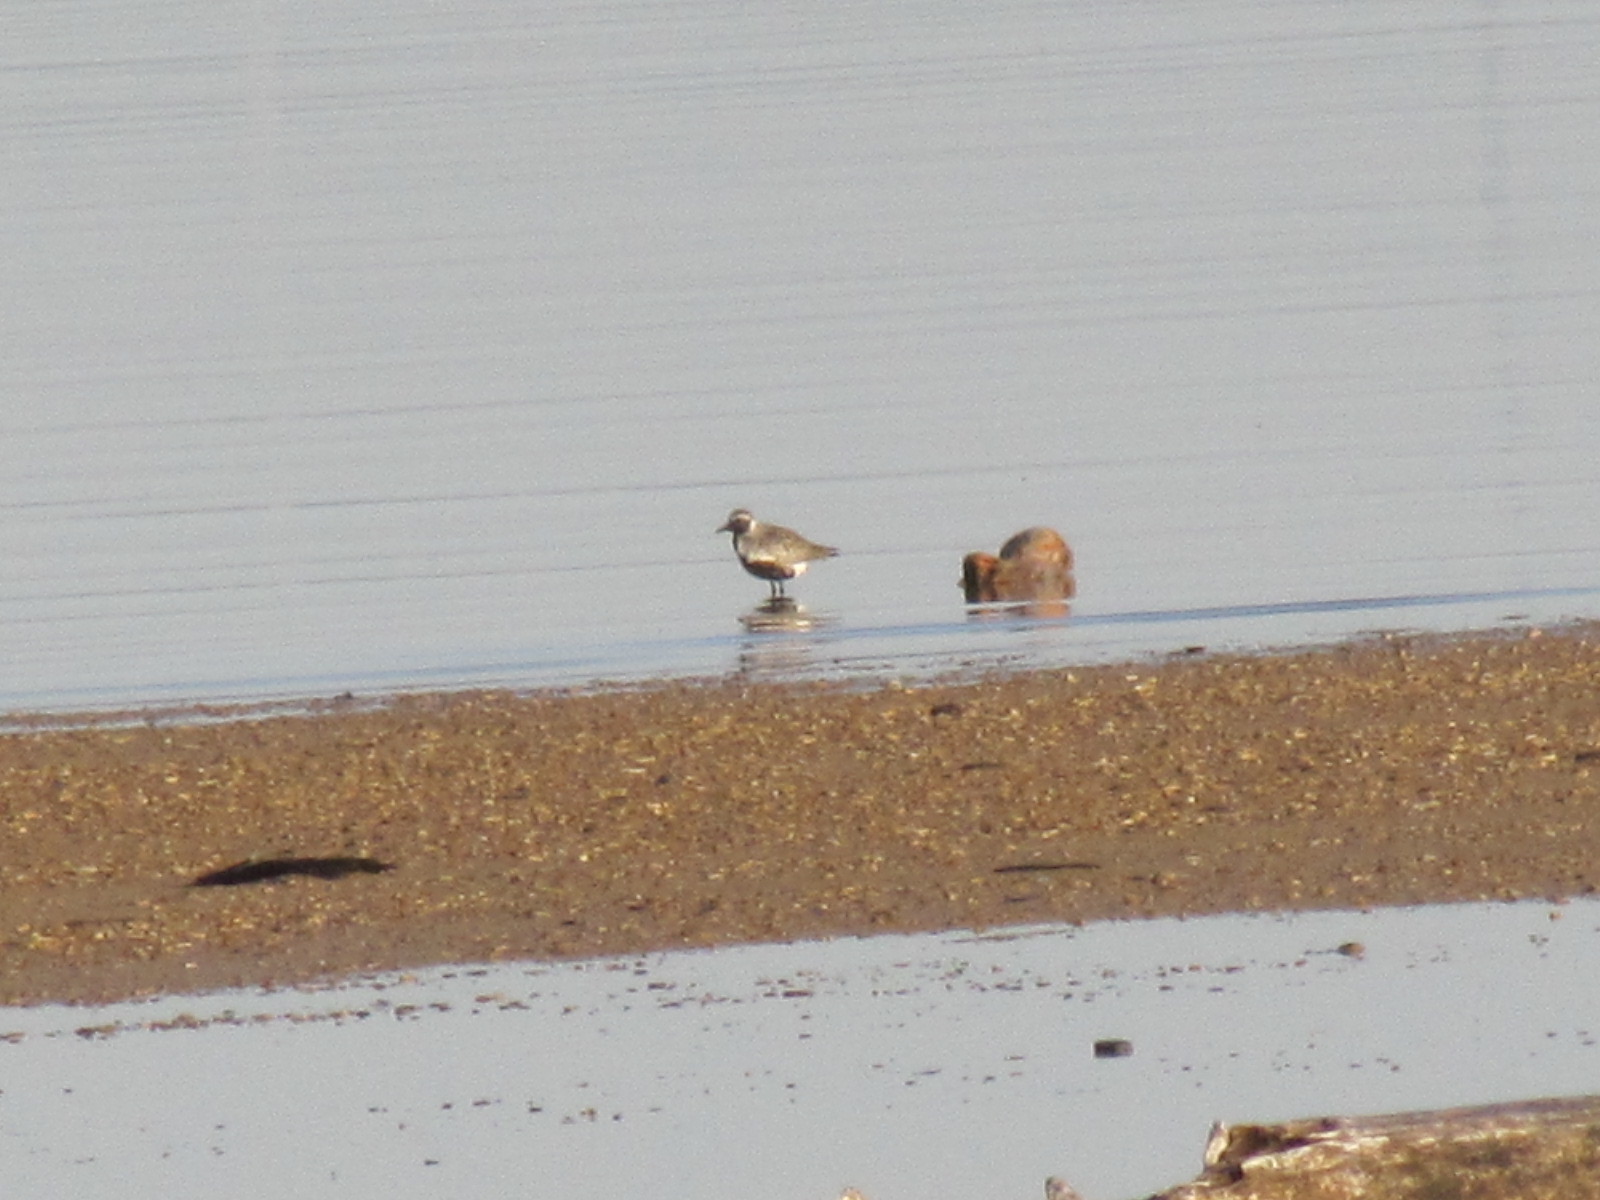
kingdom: Animalia
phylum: Chordata
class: Aves
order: Charadriiformes
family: Charadriidae
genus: Pluvialis
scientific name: Pluvialis squatarola
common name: Grey plover
